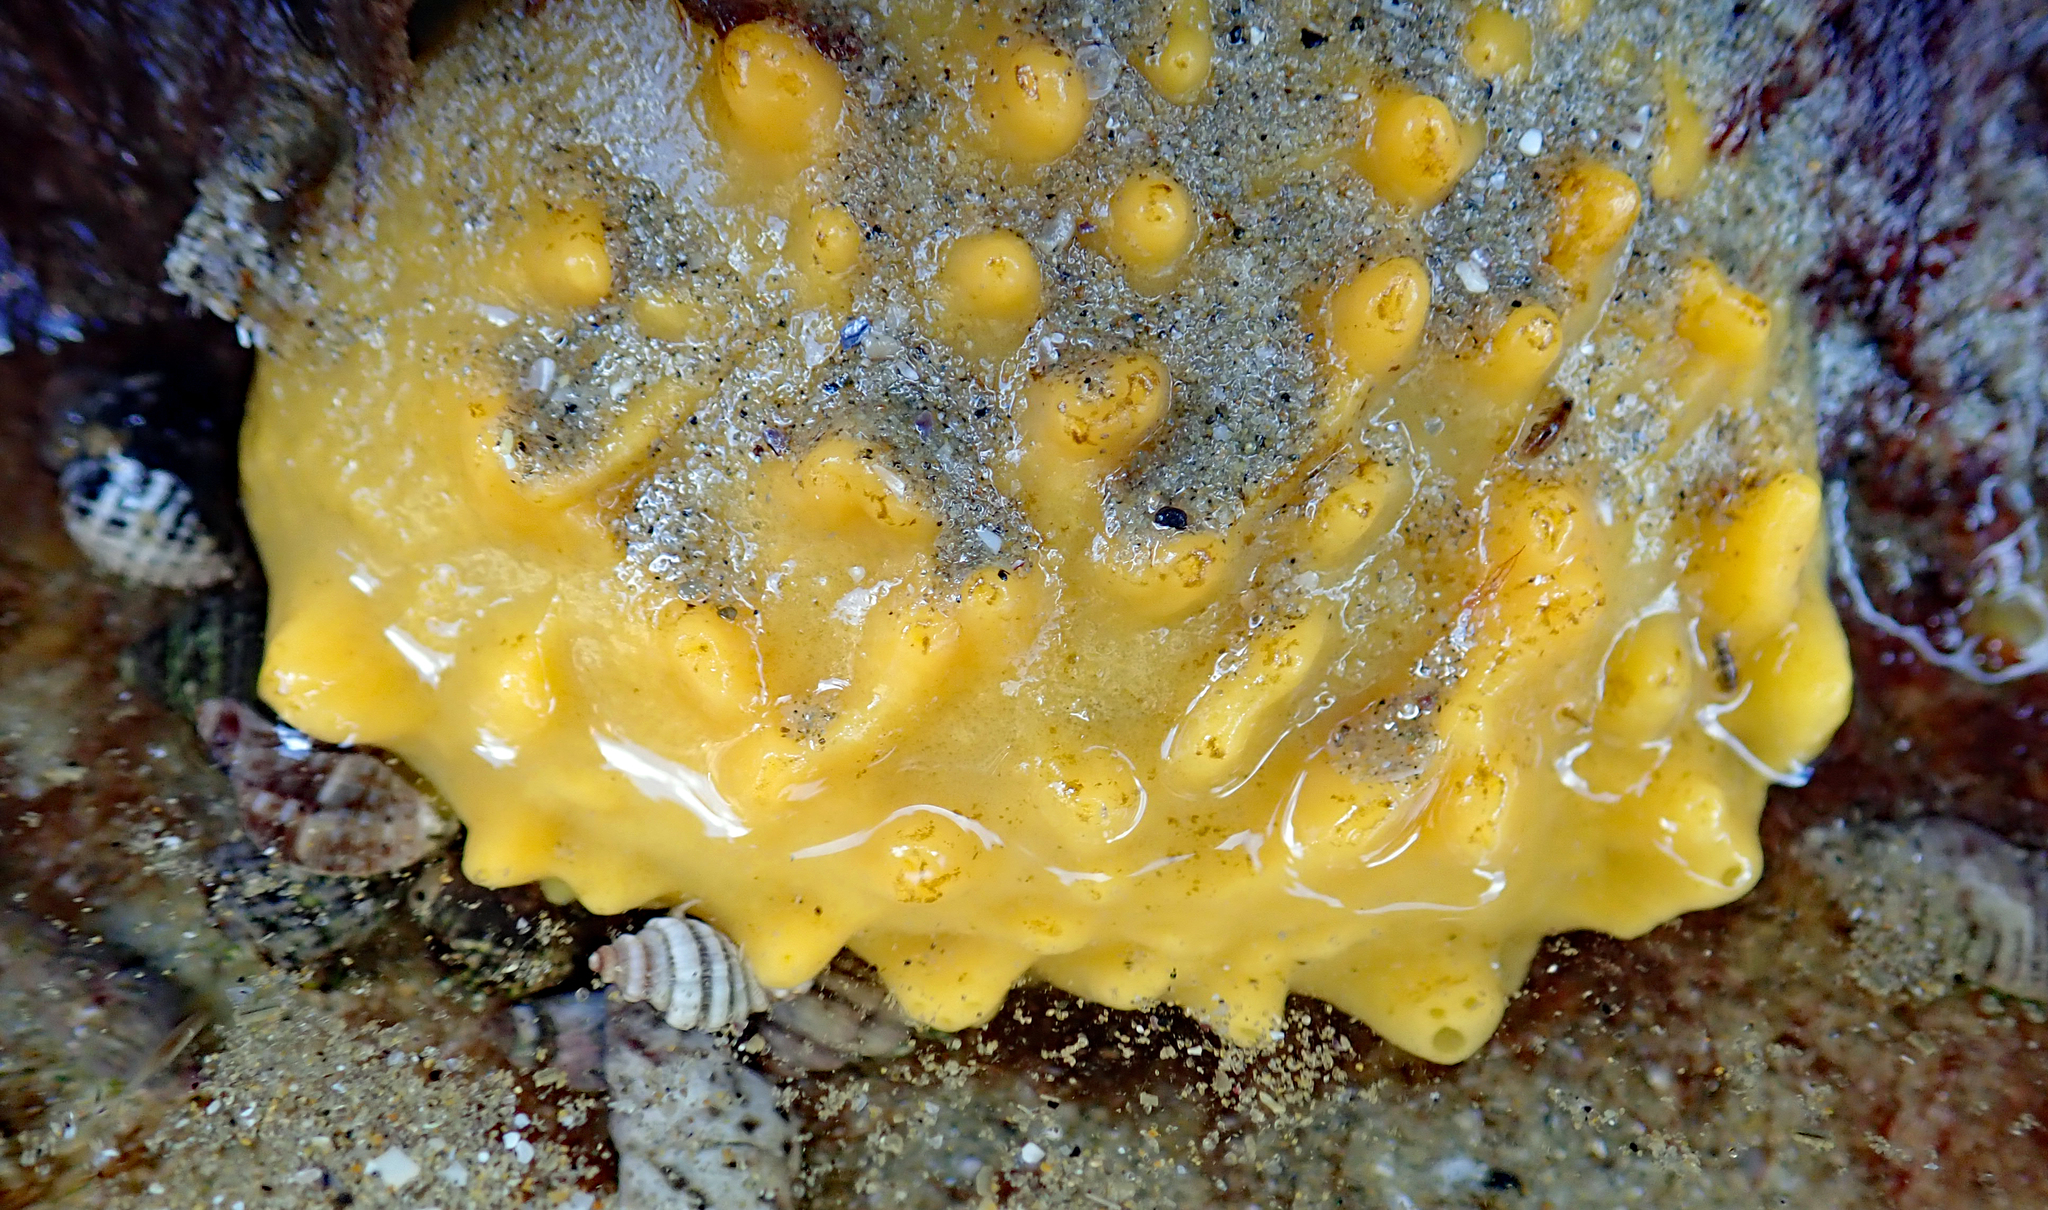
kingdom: Animalia
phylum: Porifera
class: Demospongiae
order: Polymastiida
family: Polymastiidae
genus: Polymastia
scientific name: Polymastia crocea
